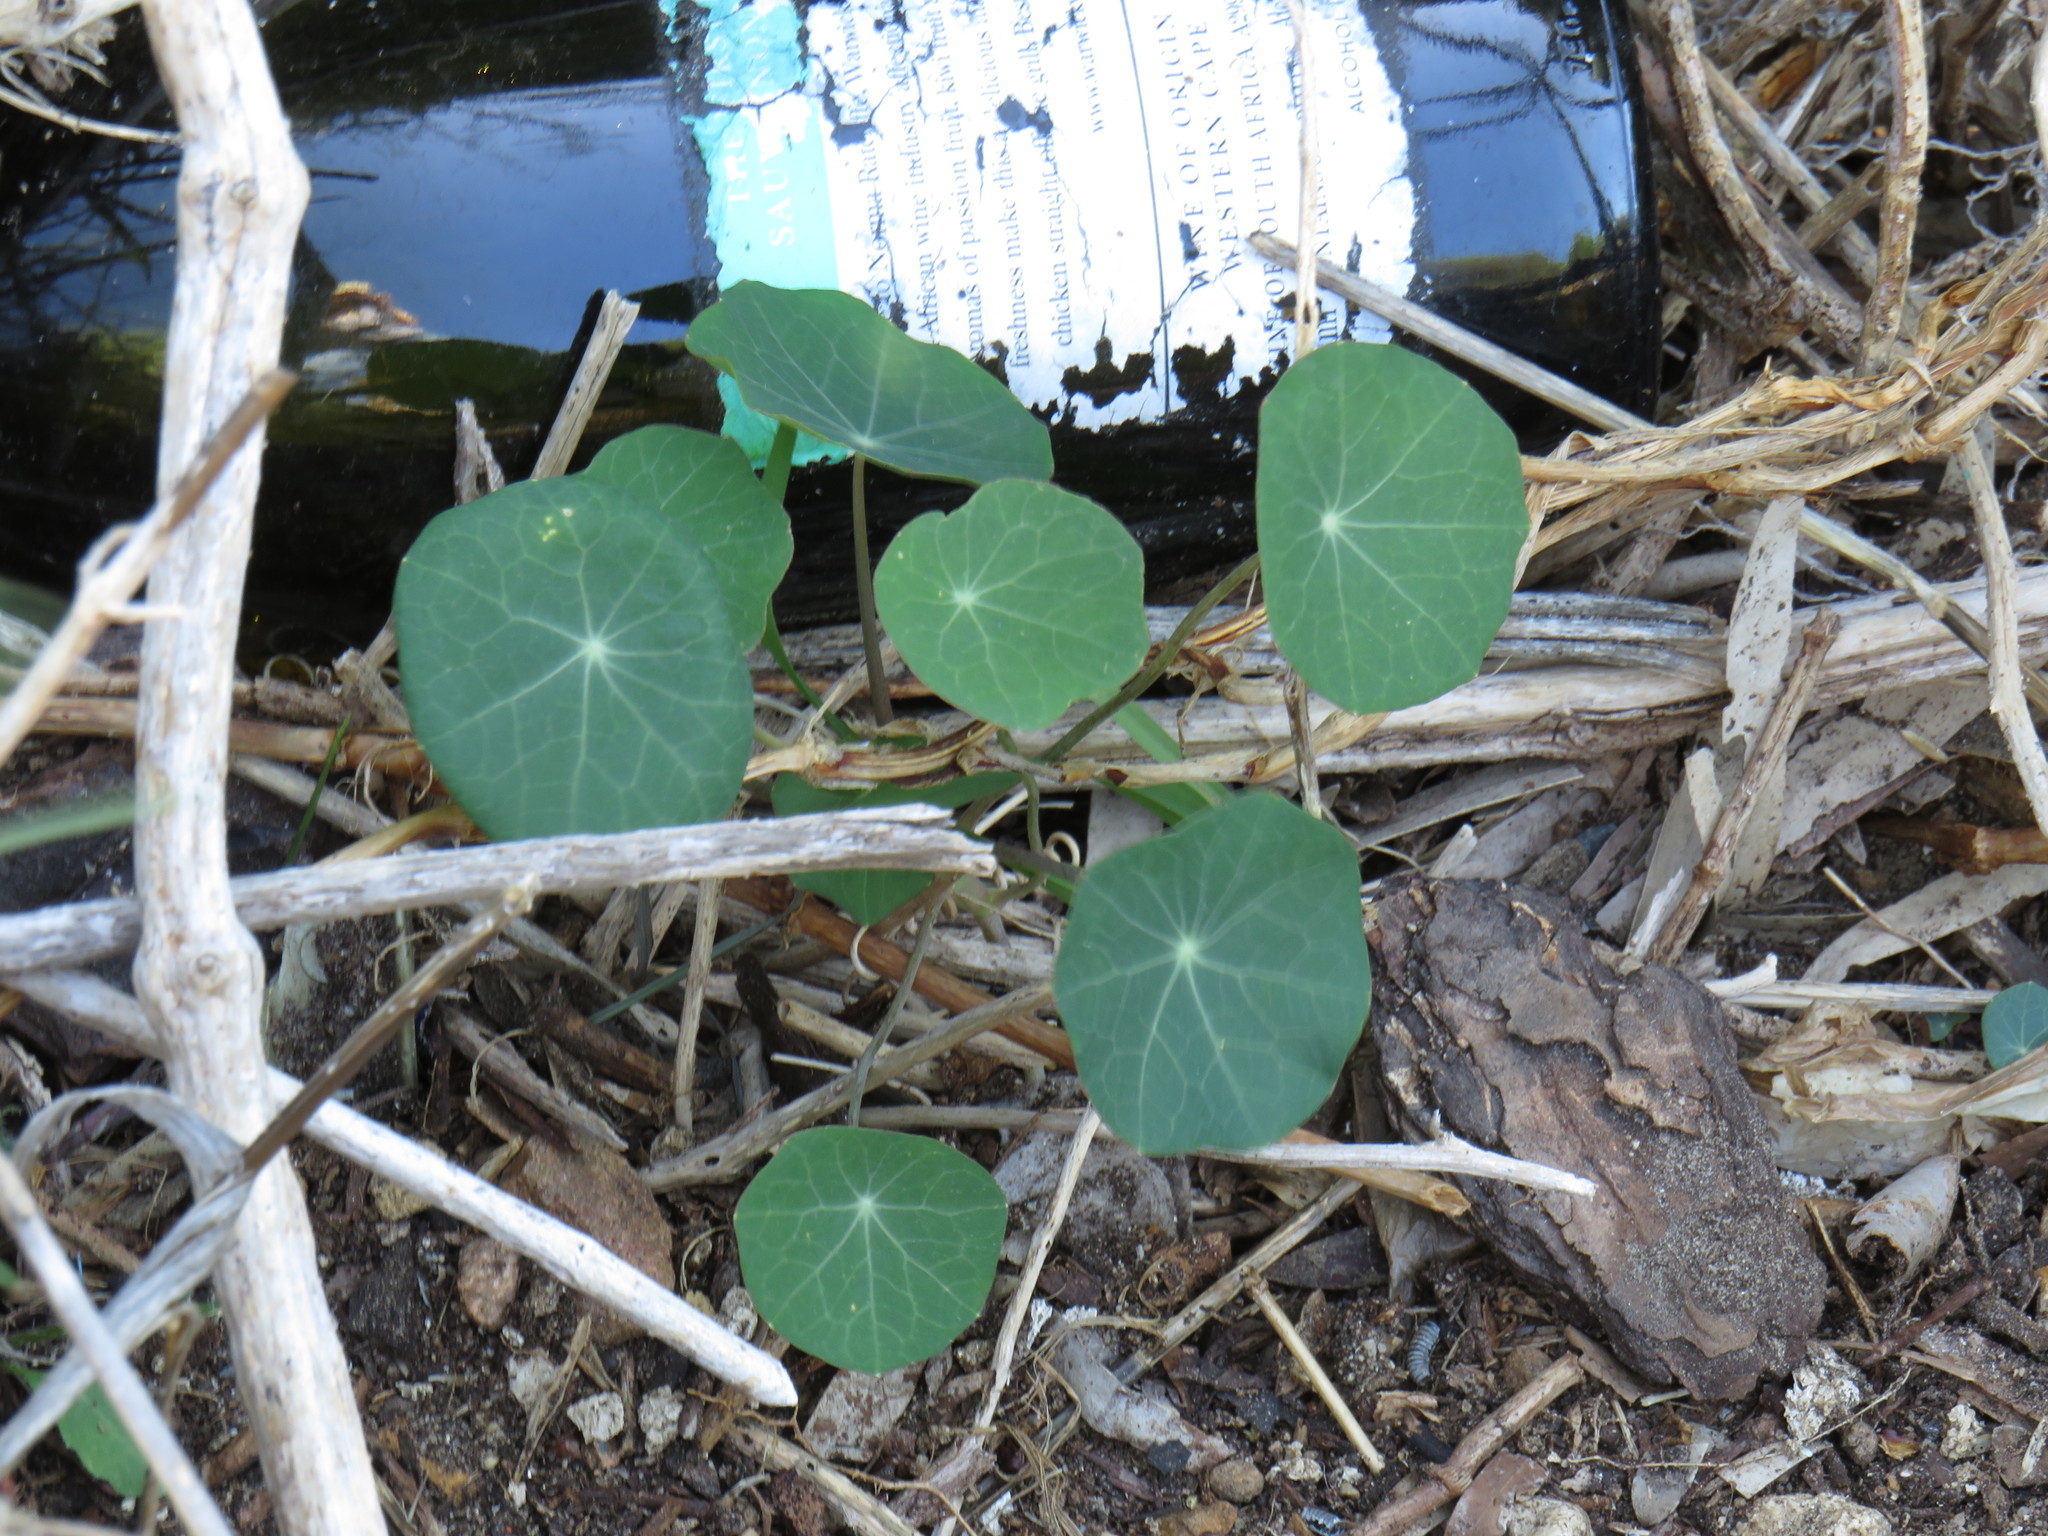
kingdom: Plantae
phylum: Tracheophyta
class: Magnoliopsida
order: Brassicales
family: Tropaeolaceae
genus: Tropaeolum
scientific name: Tropaeolum majus
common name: Nasturtium
